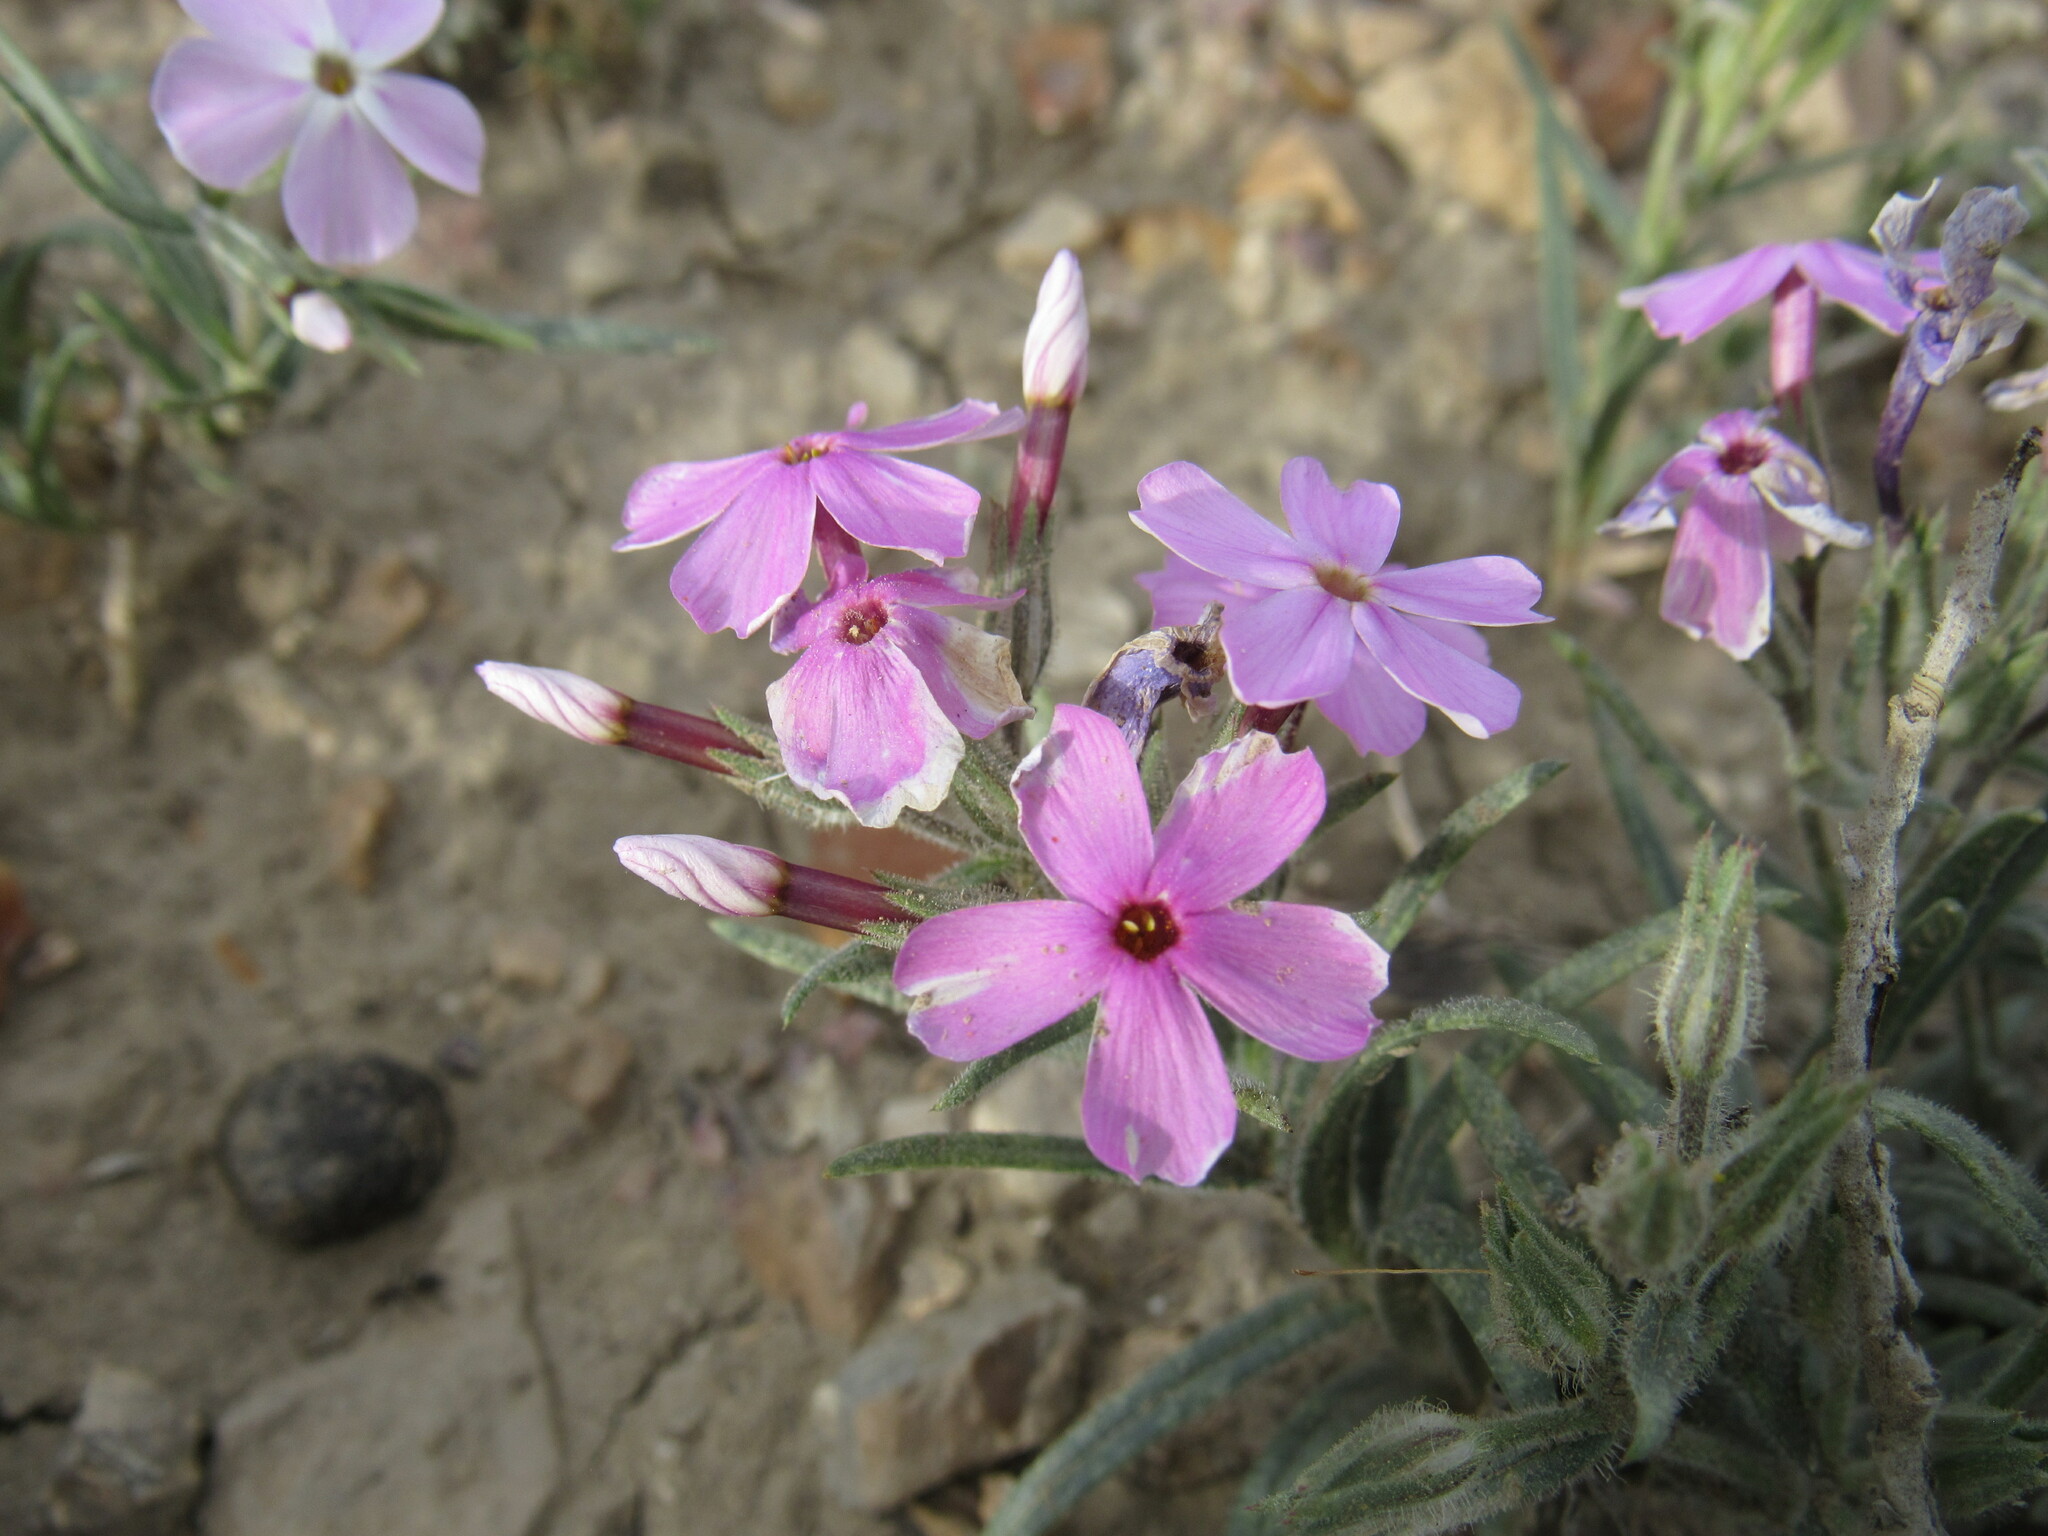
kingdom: Plantae
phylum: Tracheophyta
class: Magnoliopsida
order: Ericales
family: Polemoniaceae
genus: Phlox
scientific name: Phlox longifolia
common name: Longleaf phlox
